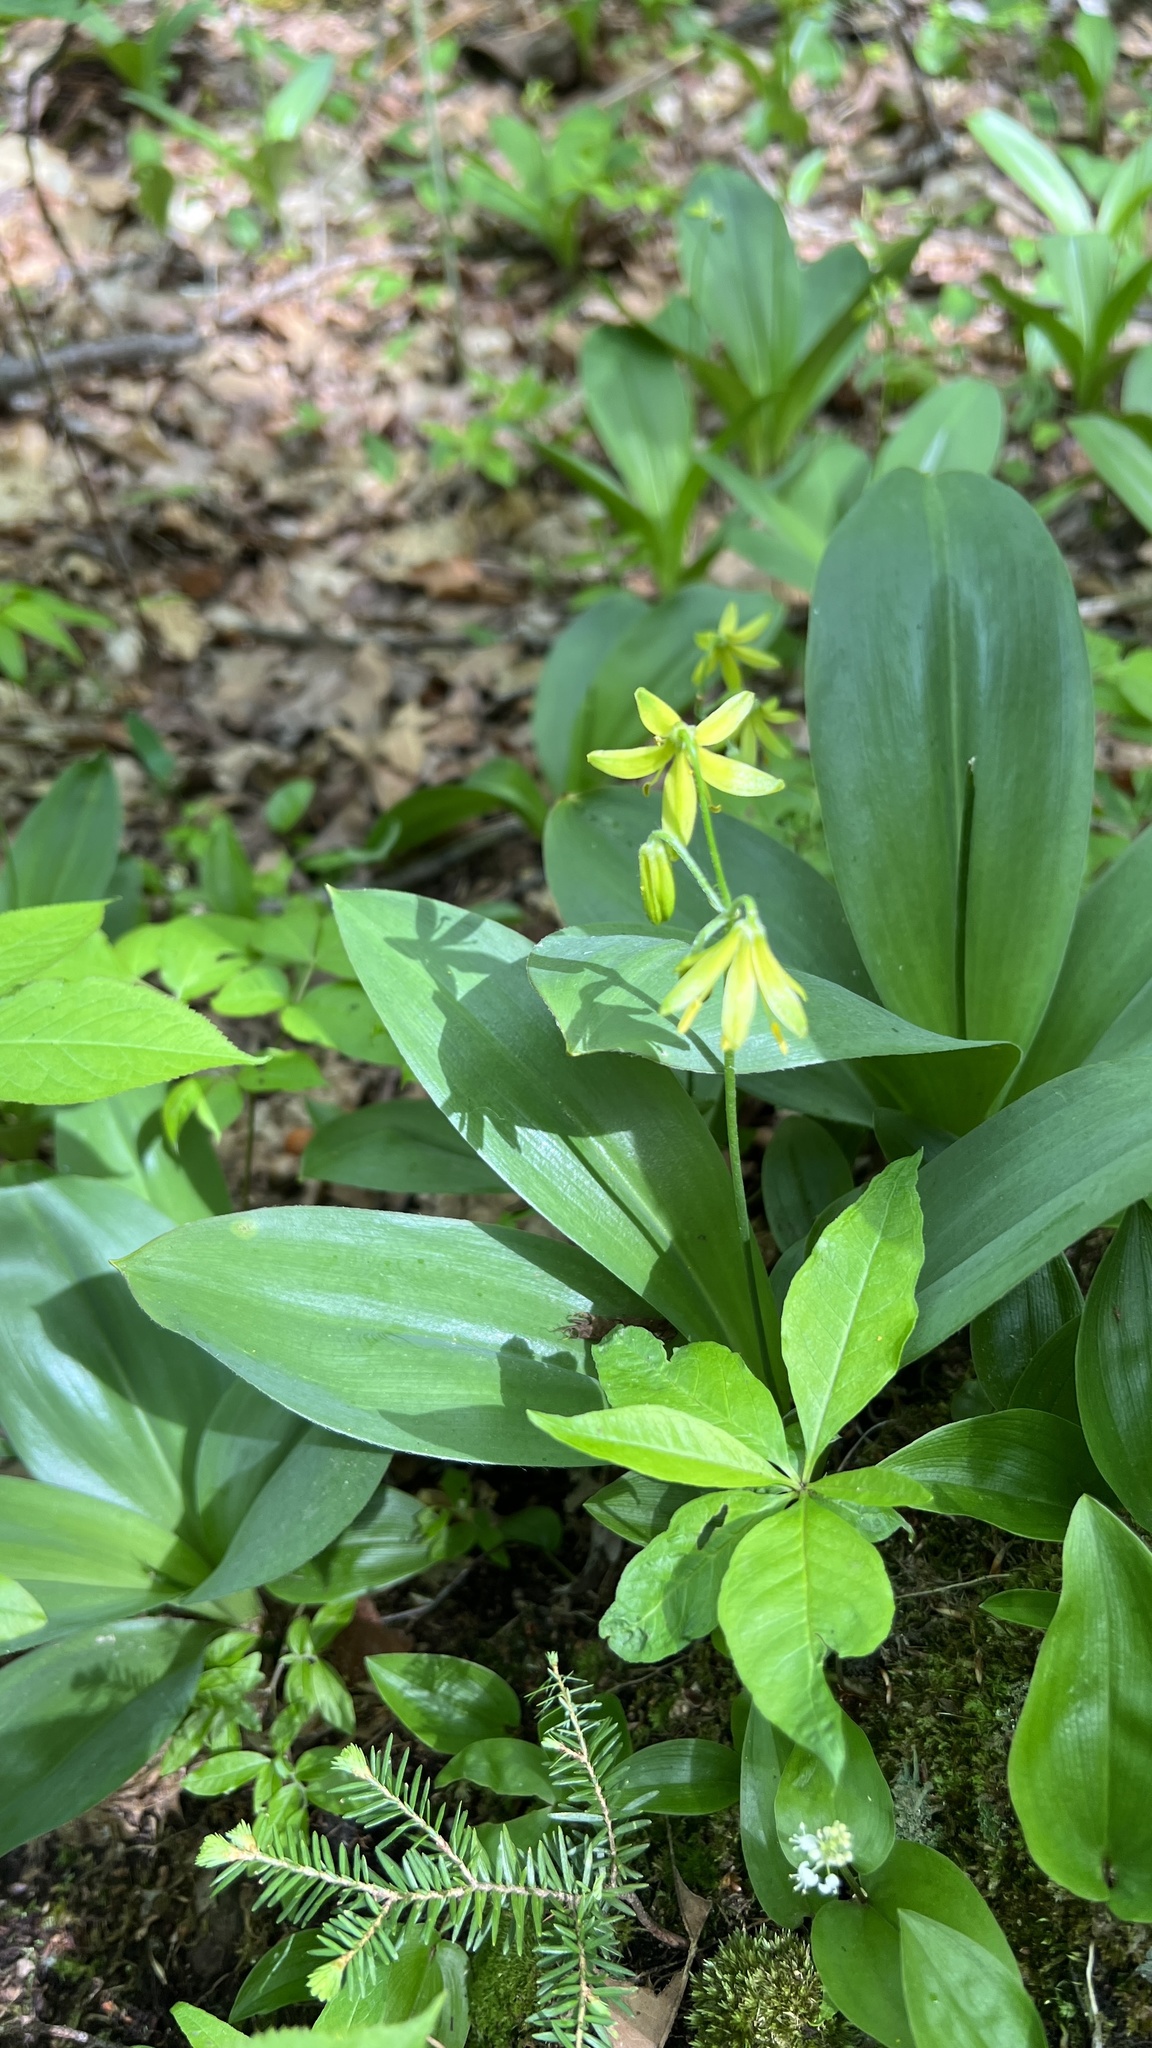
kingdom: Plantae
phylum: Tracheophyta
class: Liliopsida
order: Liliales
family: Liliaceae
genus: Clintonia
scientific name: Clintonia borealis
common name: Yellow clintonia
